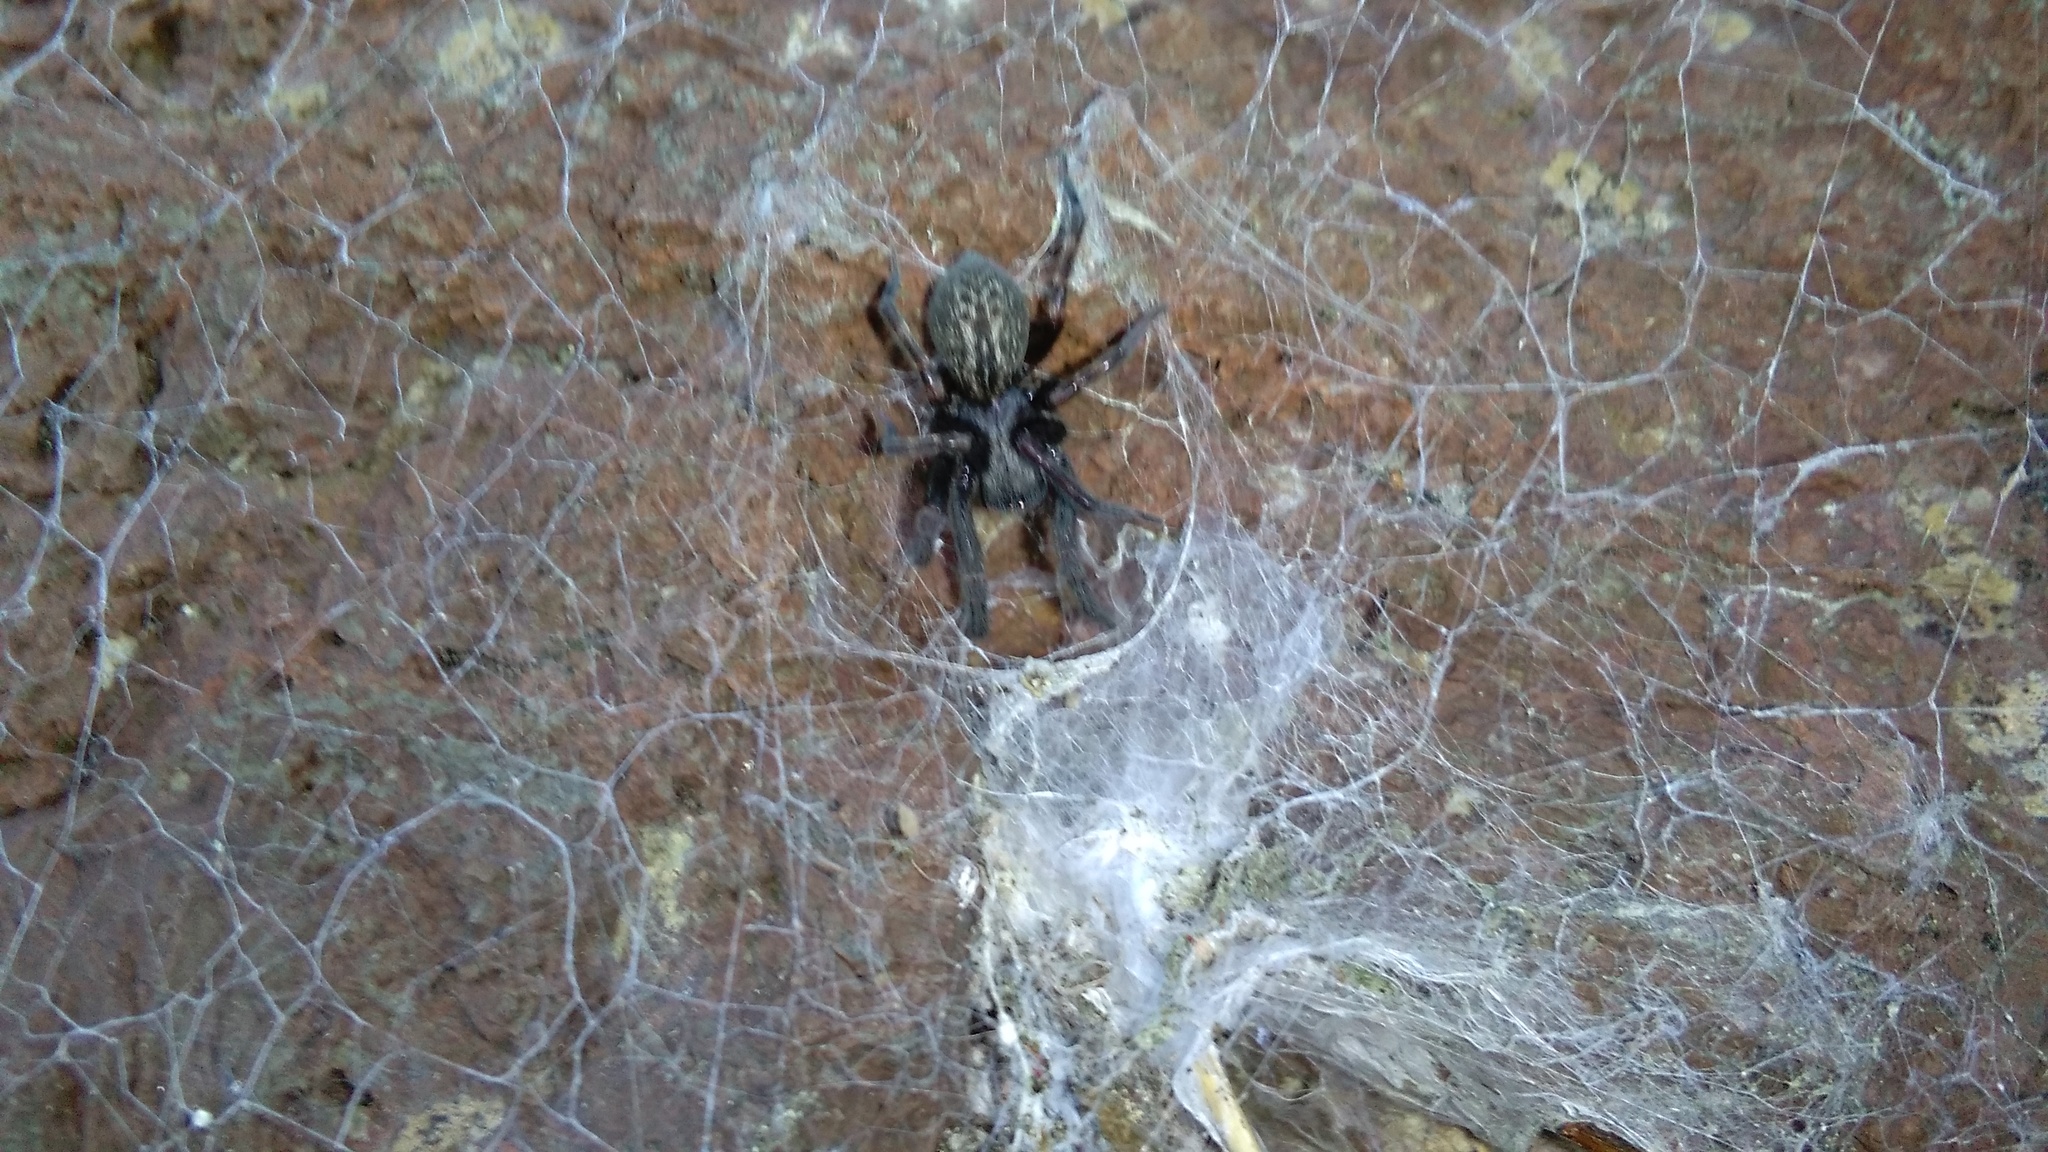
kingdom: Animalia
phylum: Arthropoda
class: Arachnida
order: Araneae
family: Desidae
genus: Badumna
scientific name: Badumna longinqua
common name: Gray house spider
